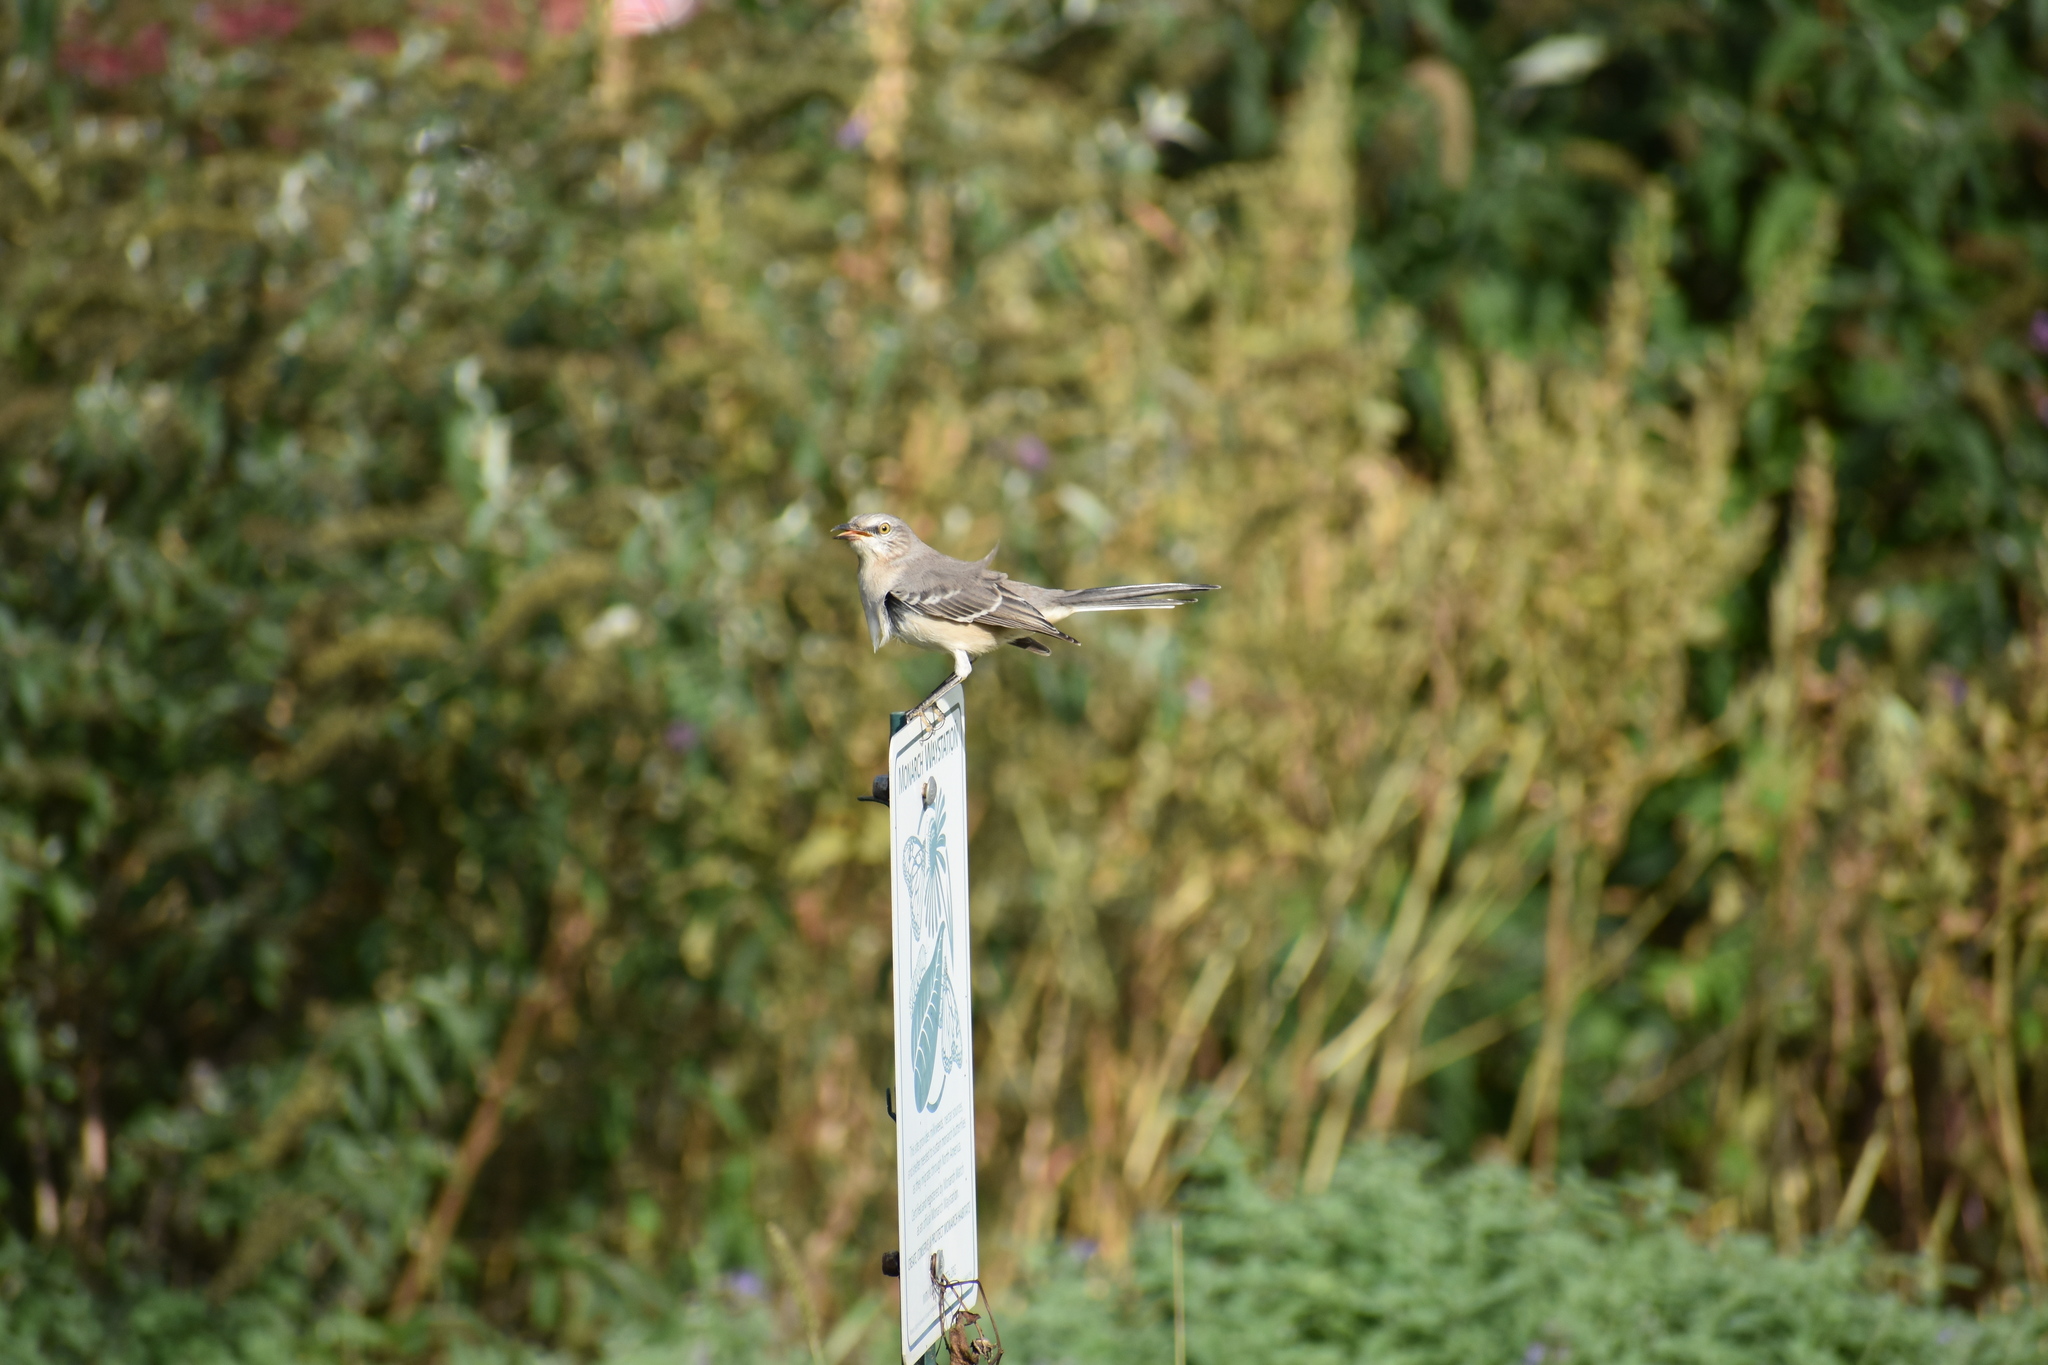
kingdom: Animalia
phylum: Chordata
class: Aves
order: Passeriformes
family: Mimidae
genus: Mimus
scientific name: Mimus polyglottos
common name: Northern mockingbird
